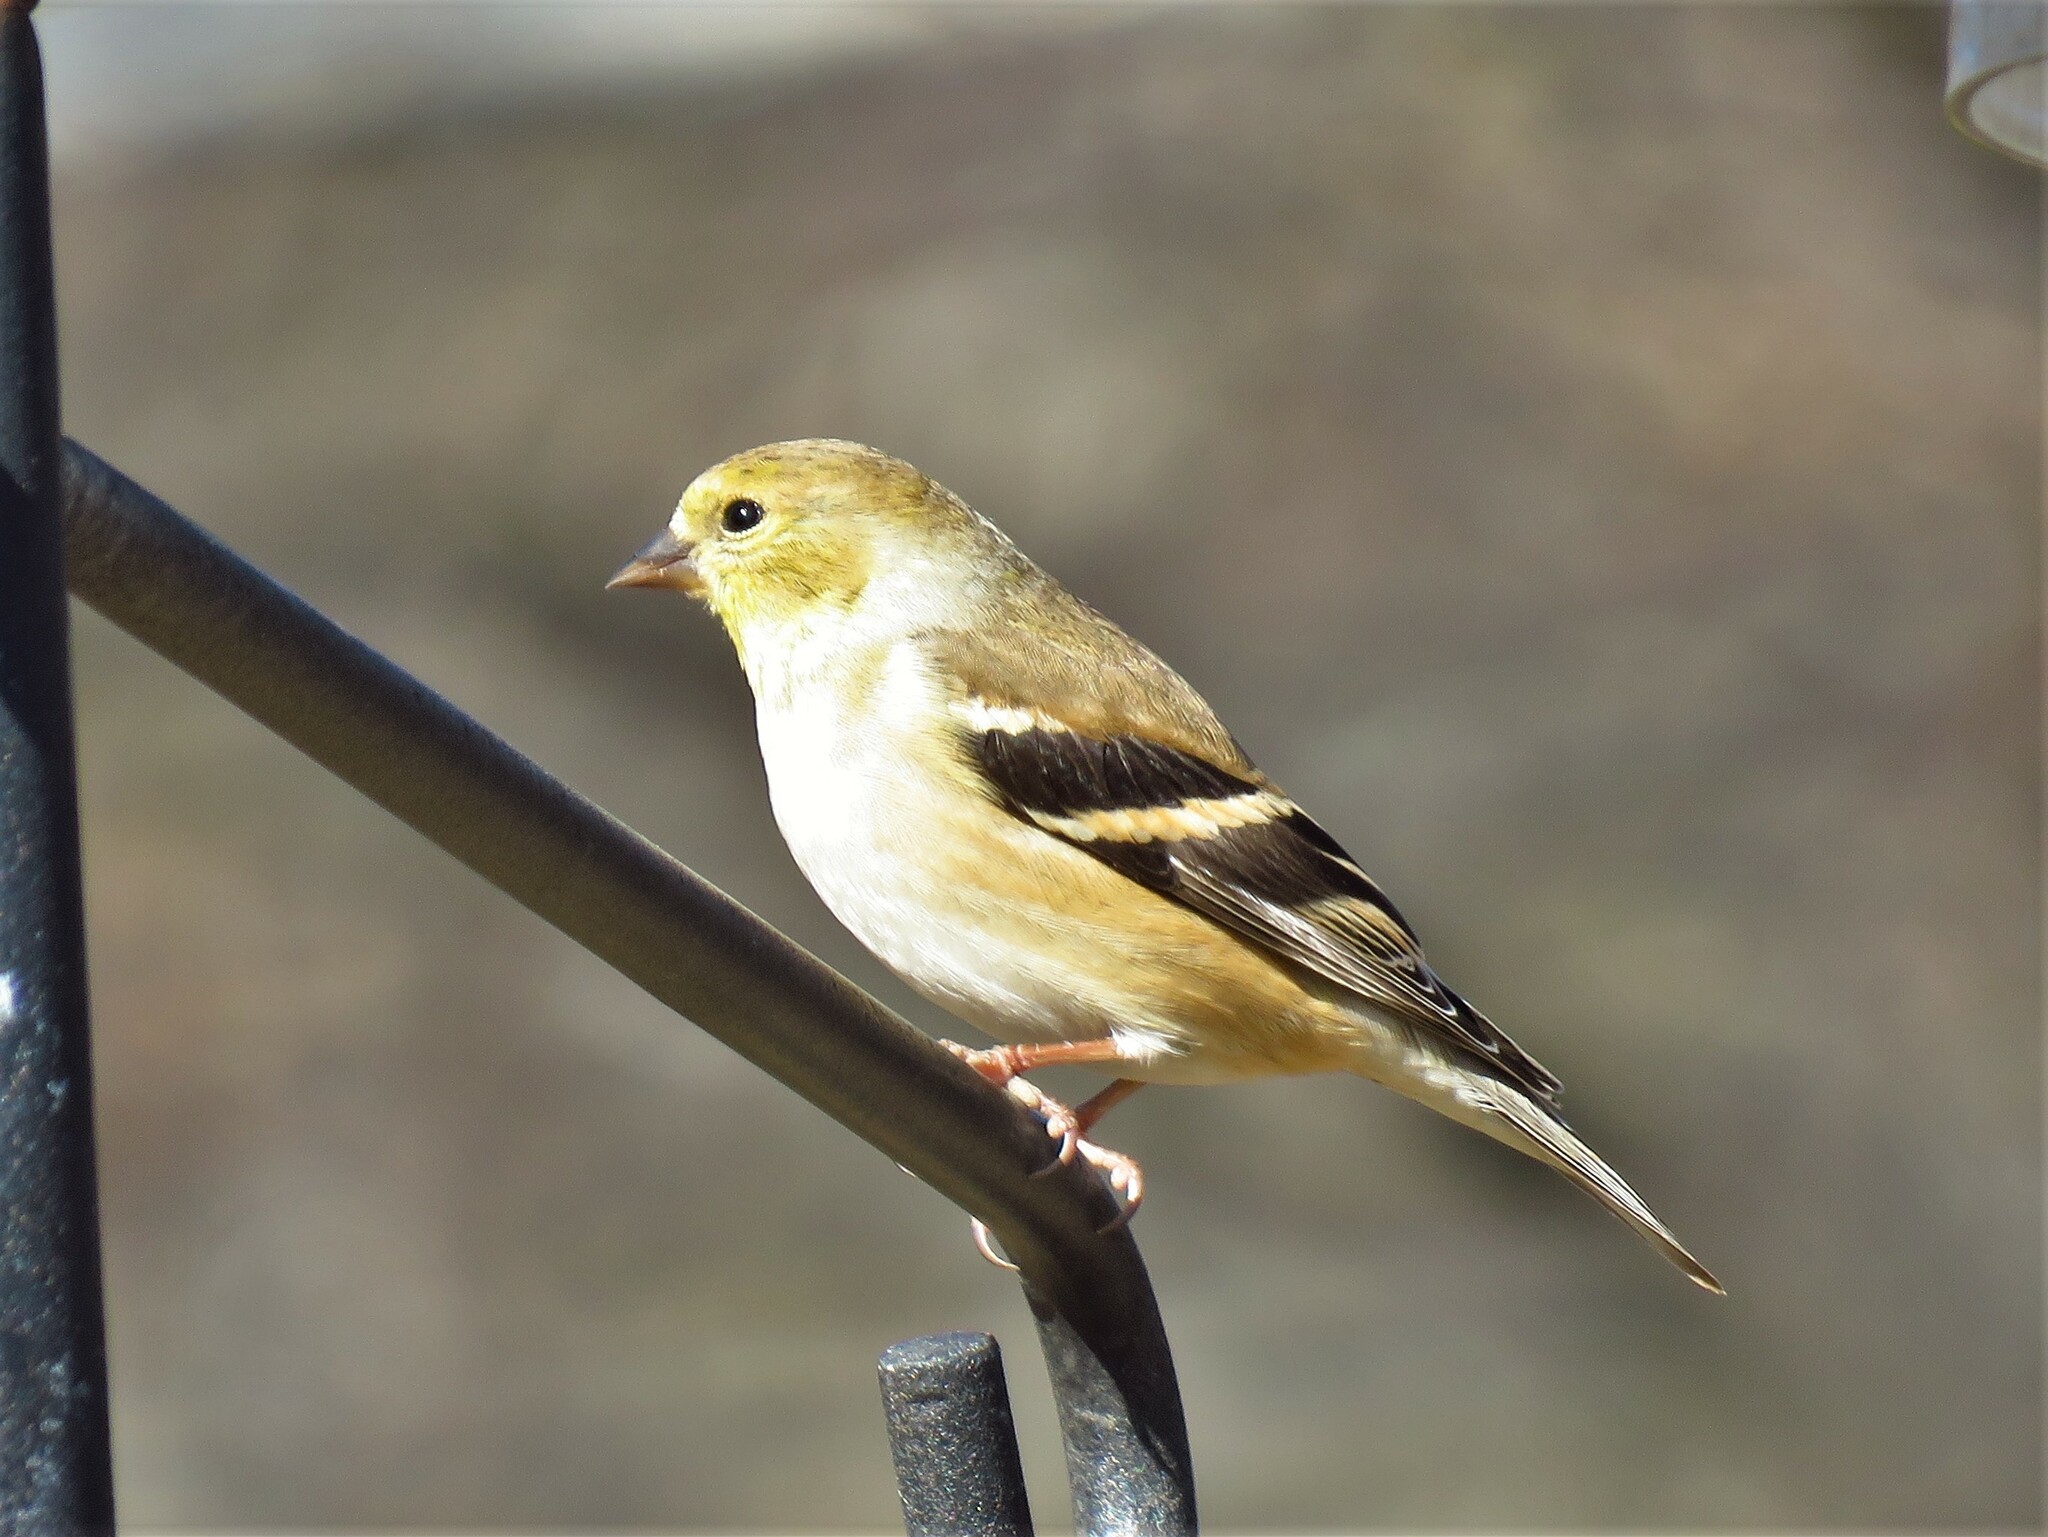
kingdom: Animalia
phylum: Chordata
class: Aves
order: Passeriformes
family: Fringillidae
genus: Spinus
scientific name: Spinus tristis
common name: American goldfinch
